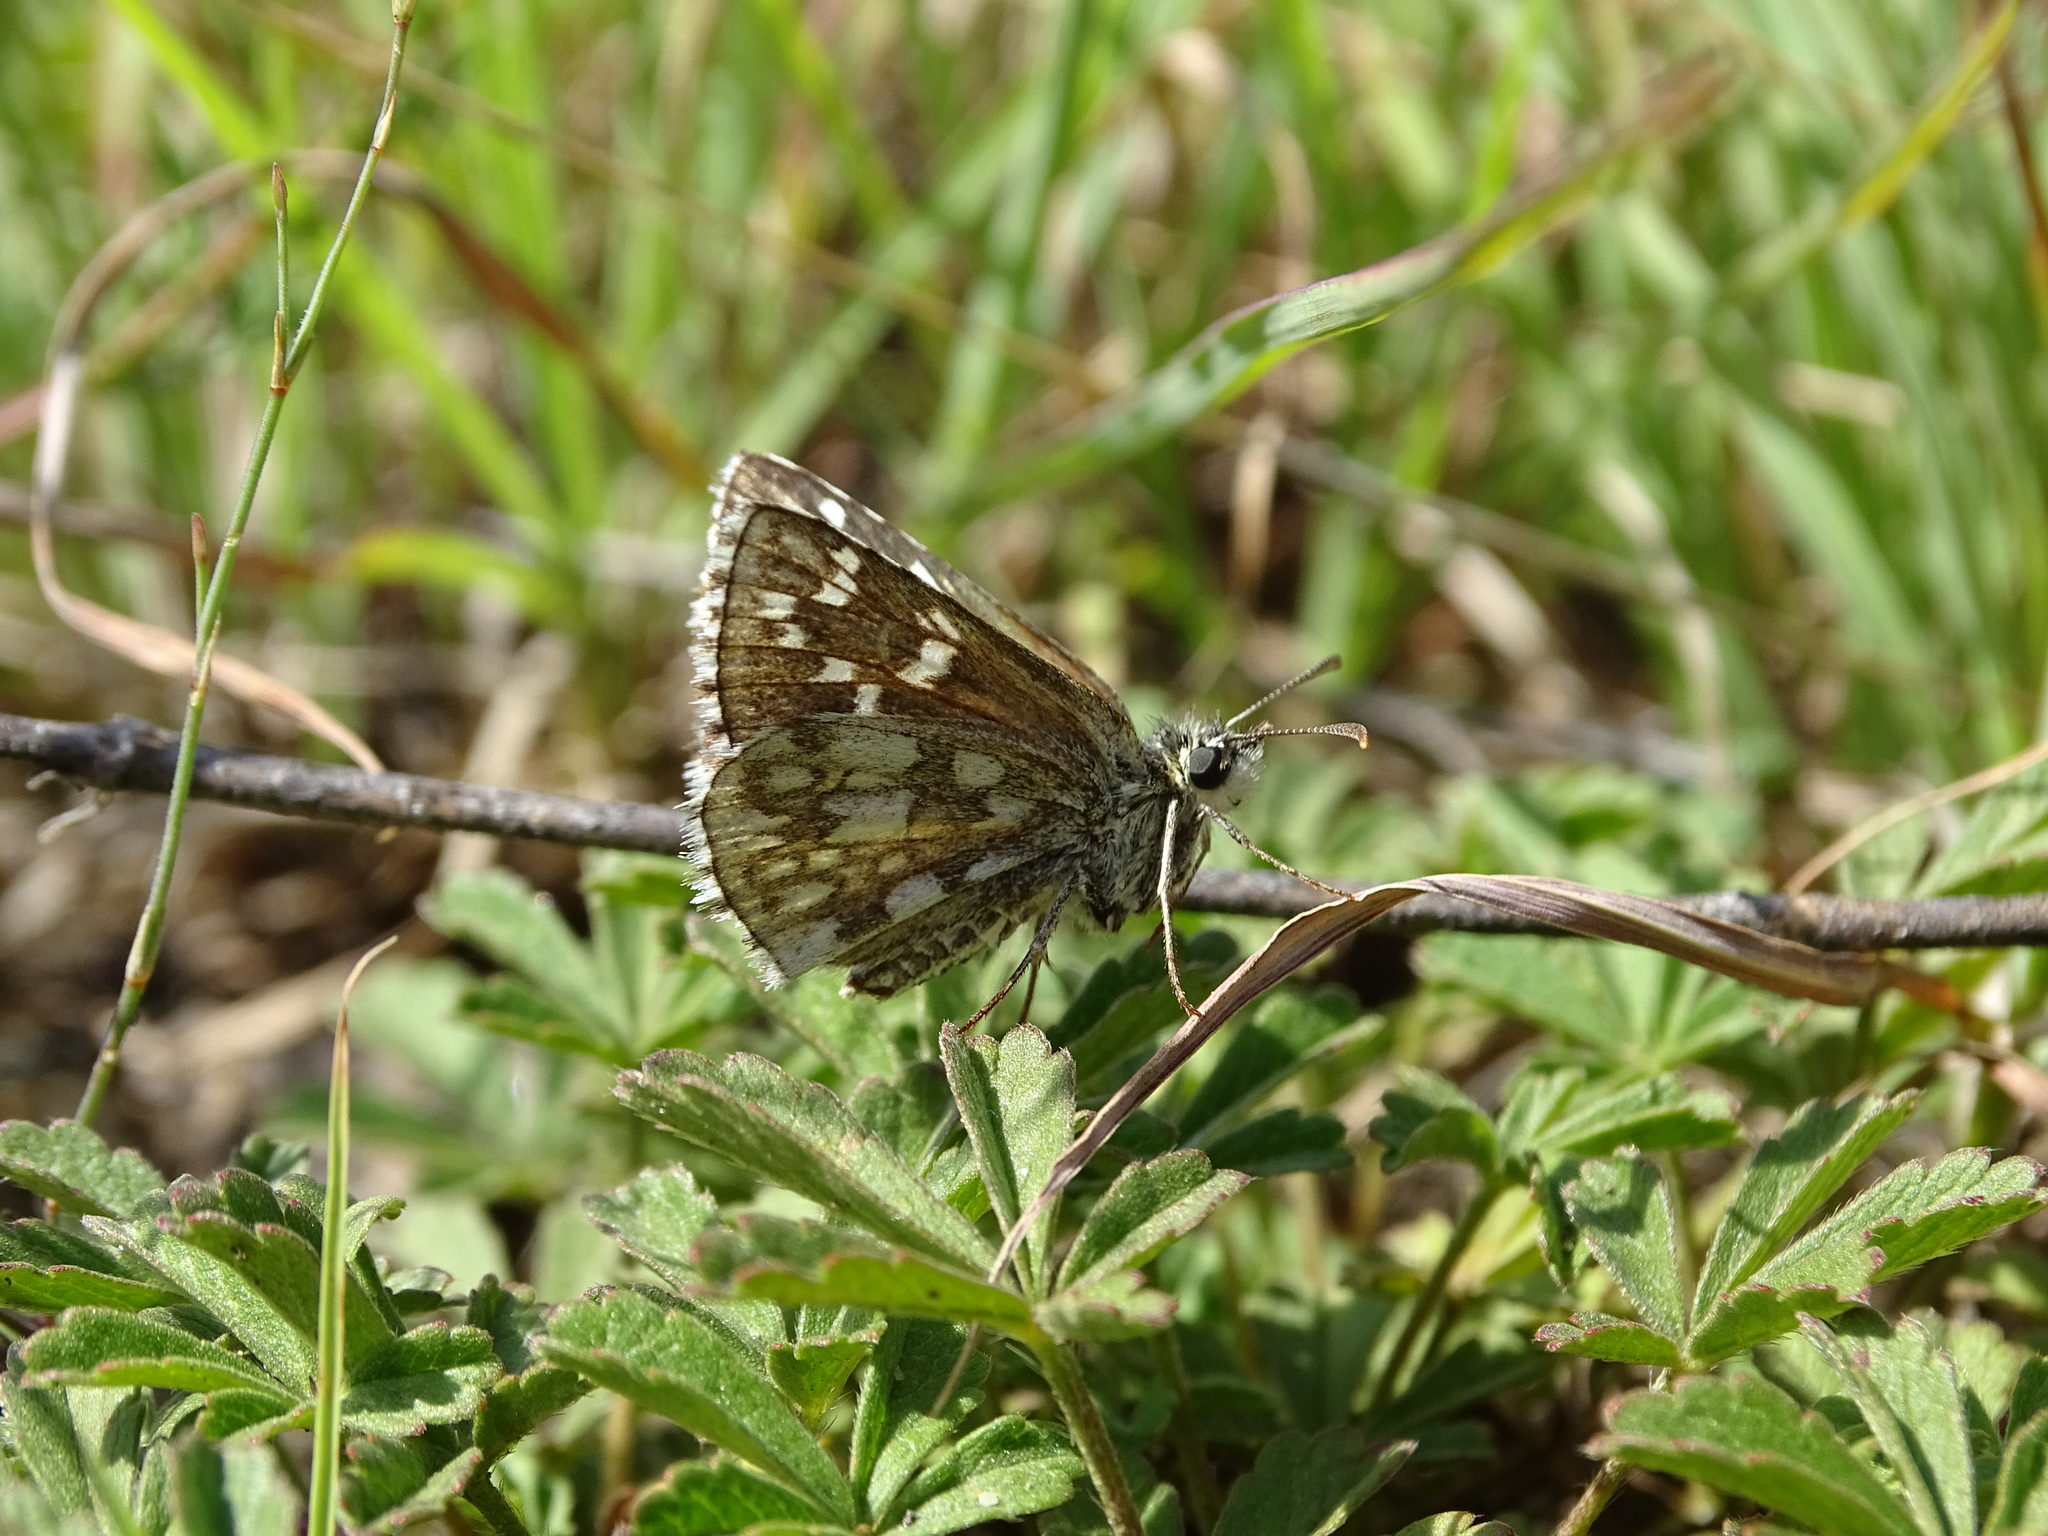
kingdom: Animalia
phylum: Arthropoda
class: Insecta
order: Lepidoptera
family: Hesperiidae
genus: Pyrgus
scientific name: Pyrgus fritillarius
